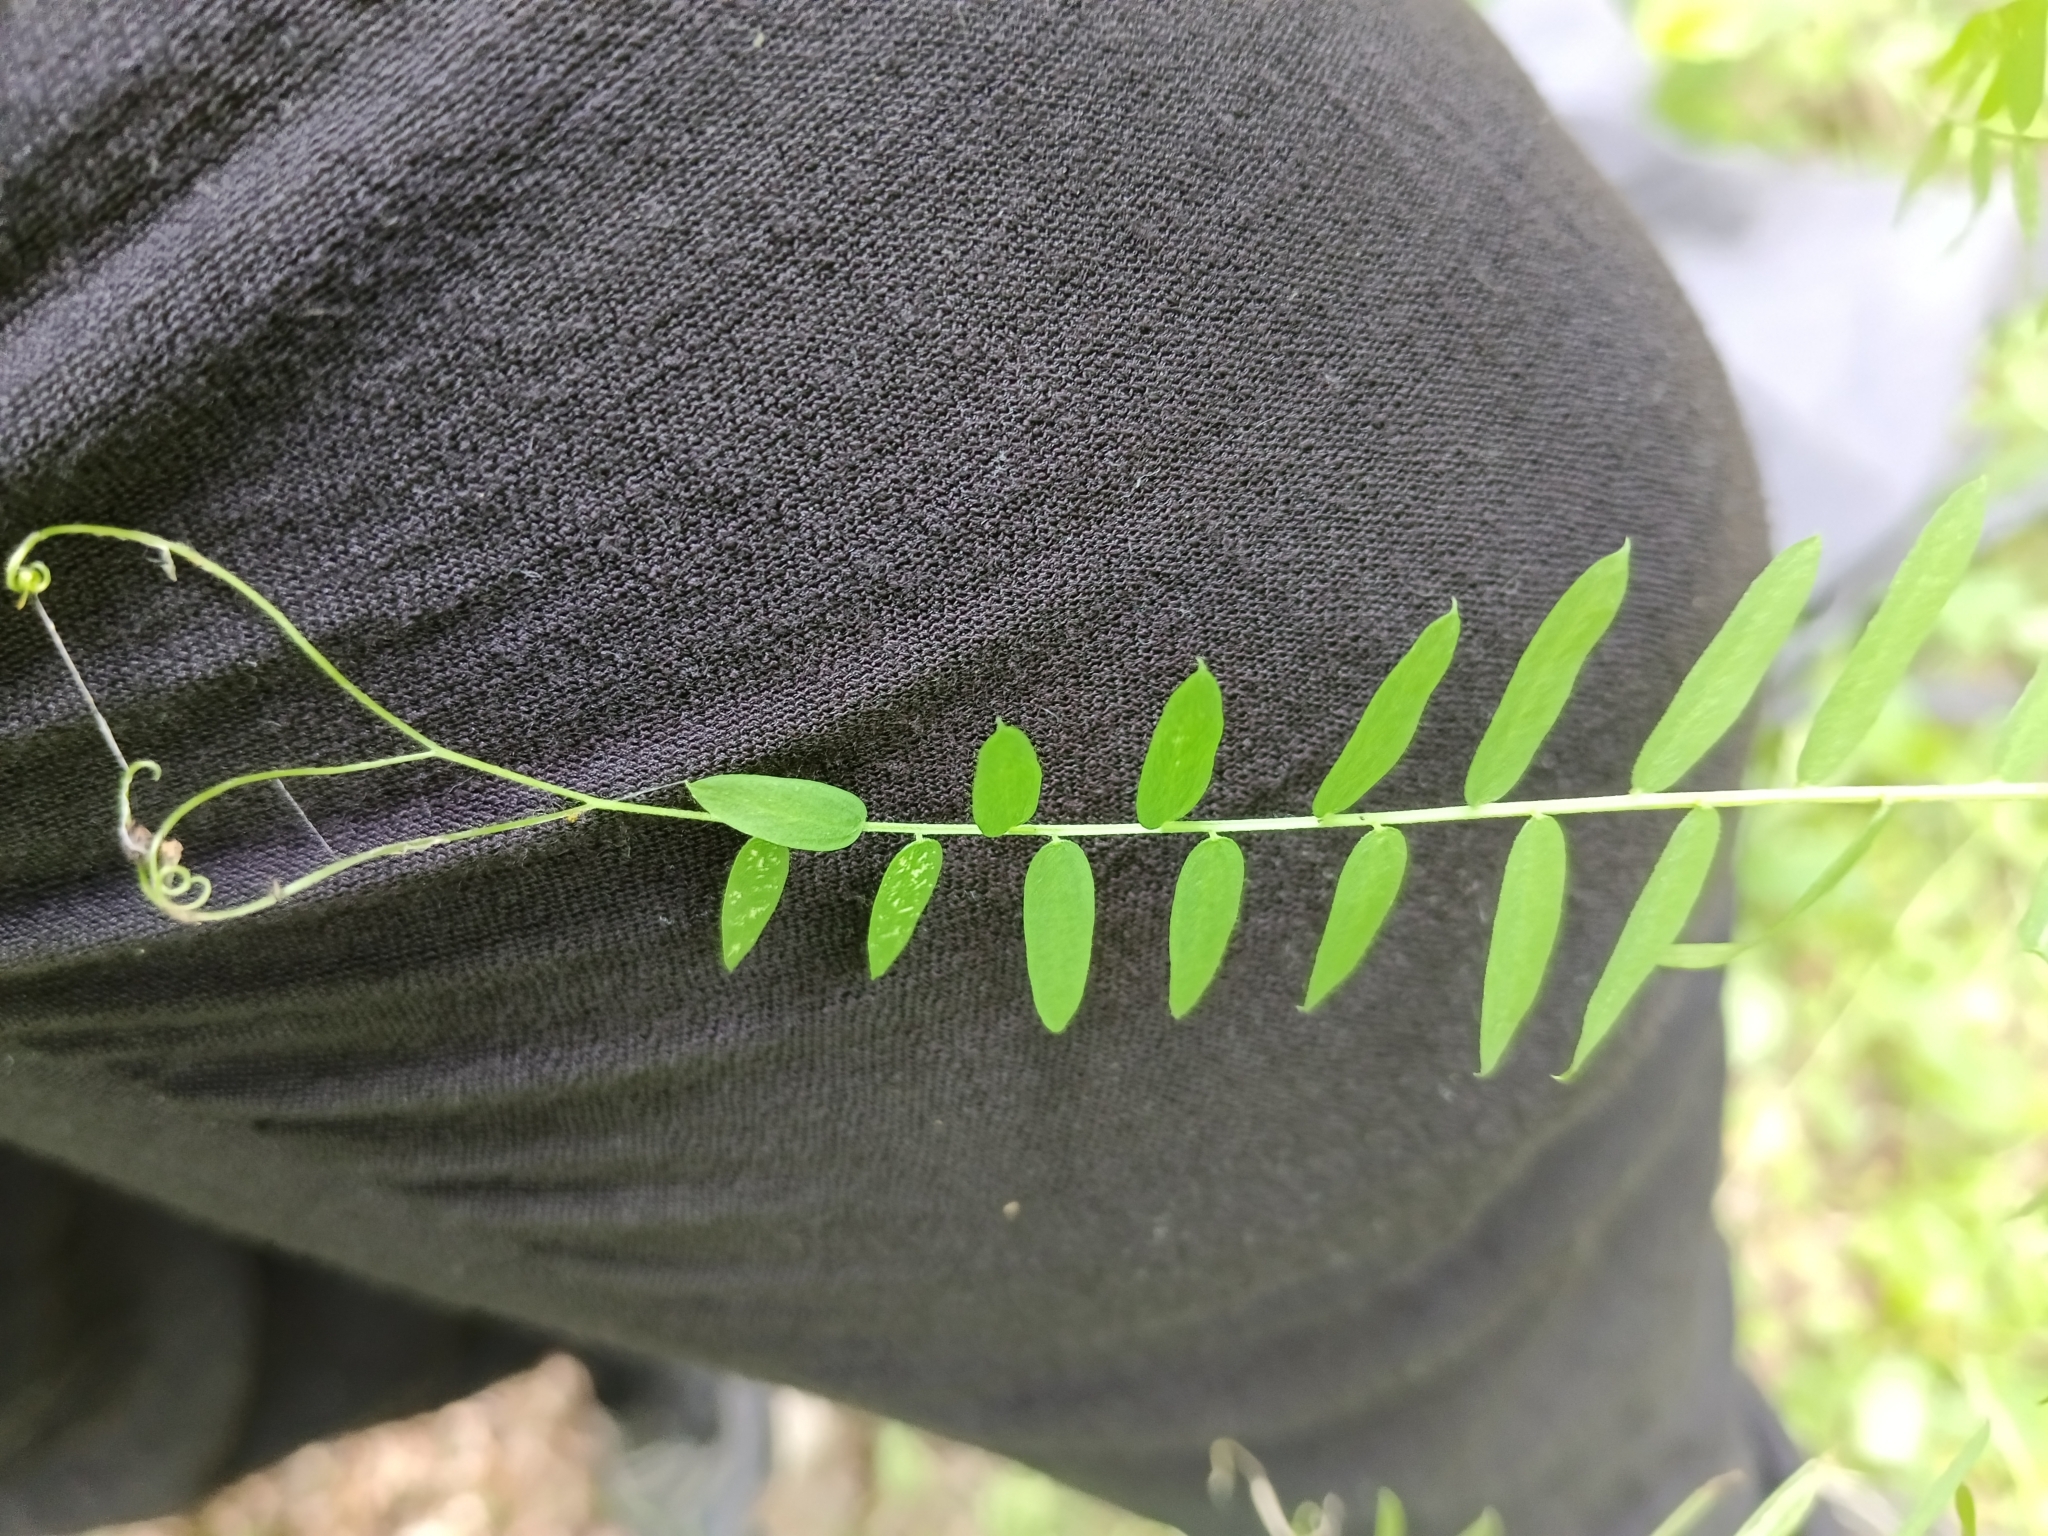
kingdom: Plantae
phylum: Tracheophyta
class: Magnoliopsida
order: Fabales
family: Fabaceae
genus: Vicia
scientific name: Vicia cracca
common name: Bird vetch
